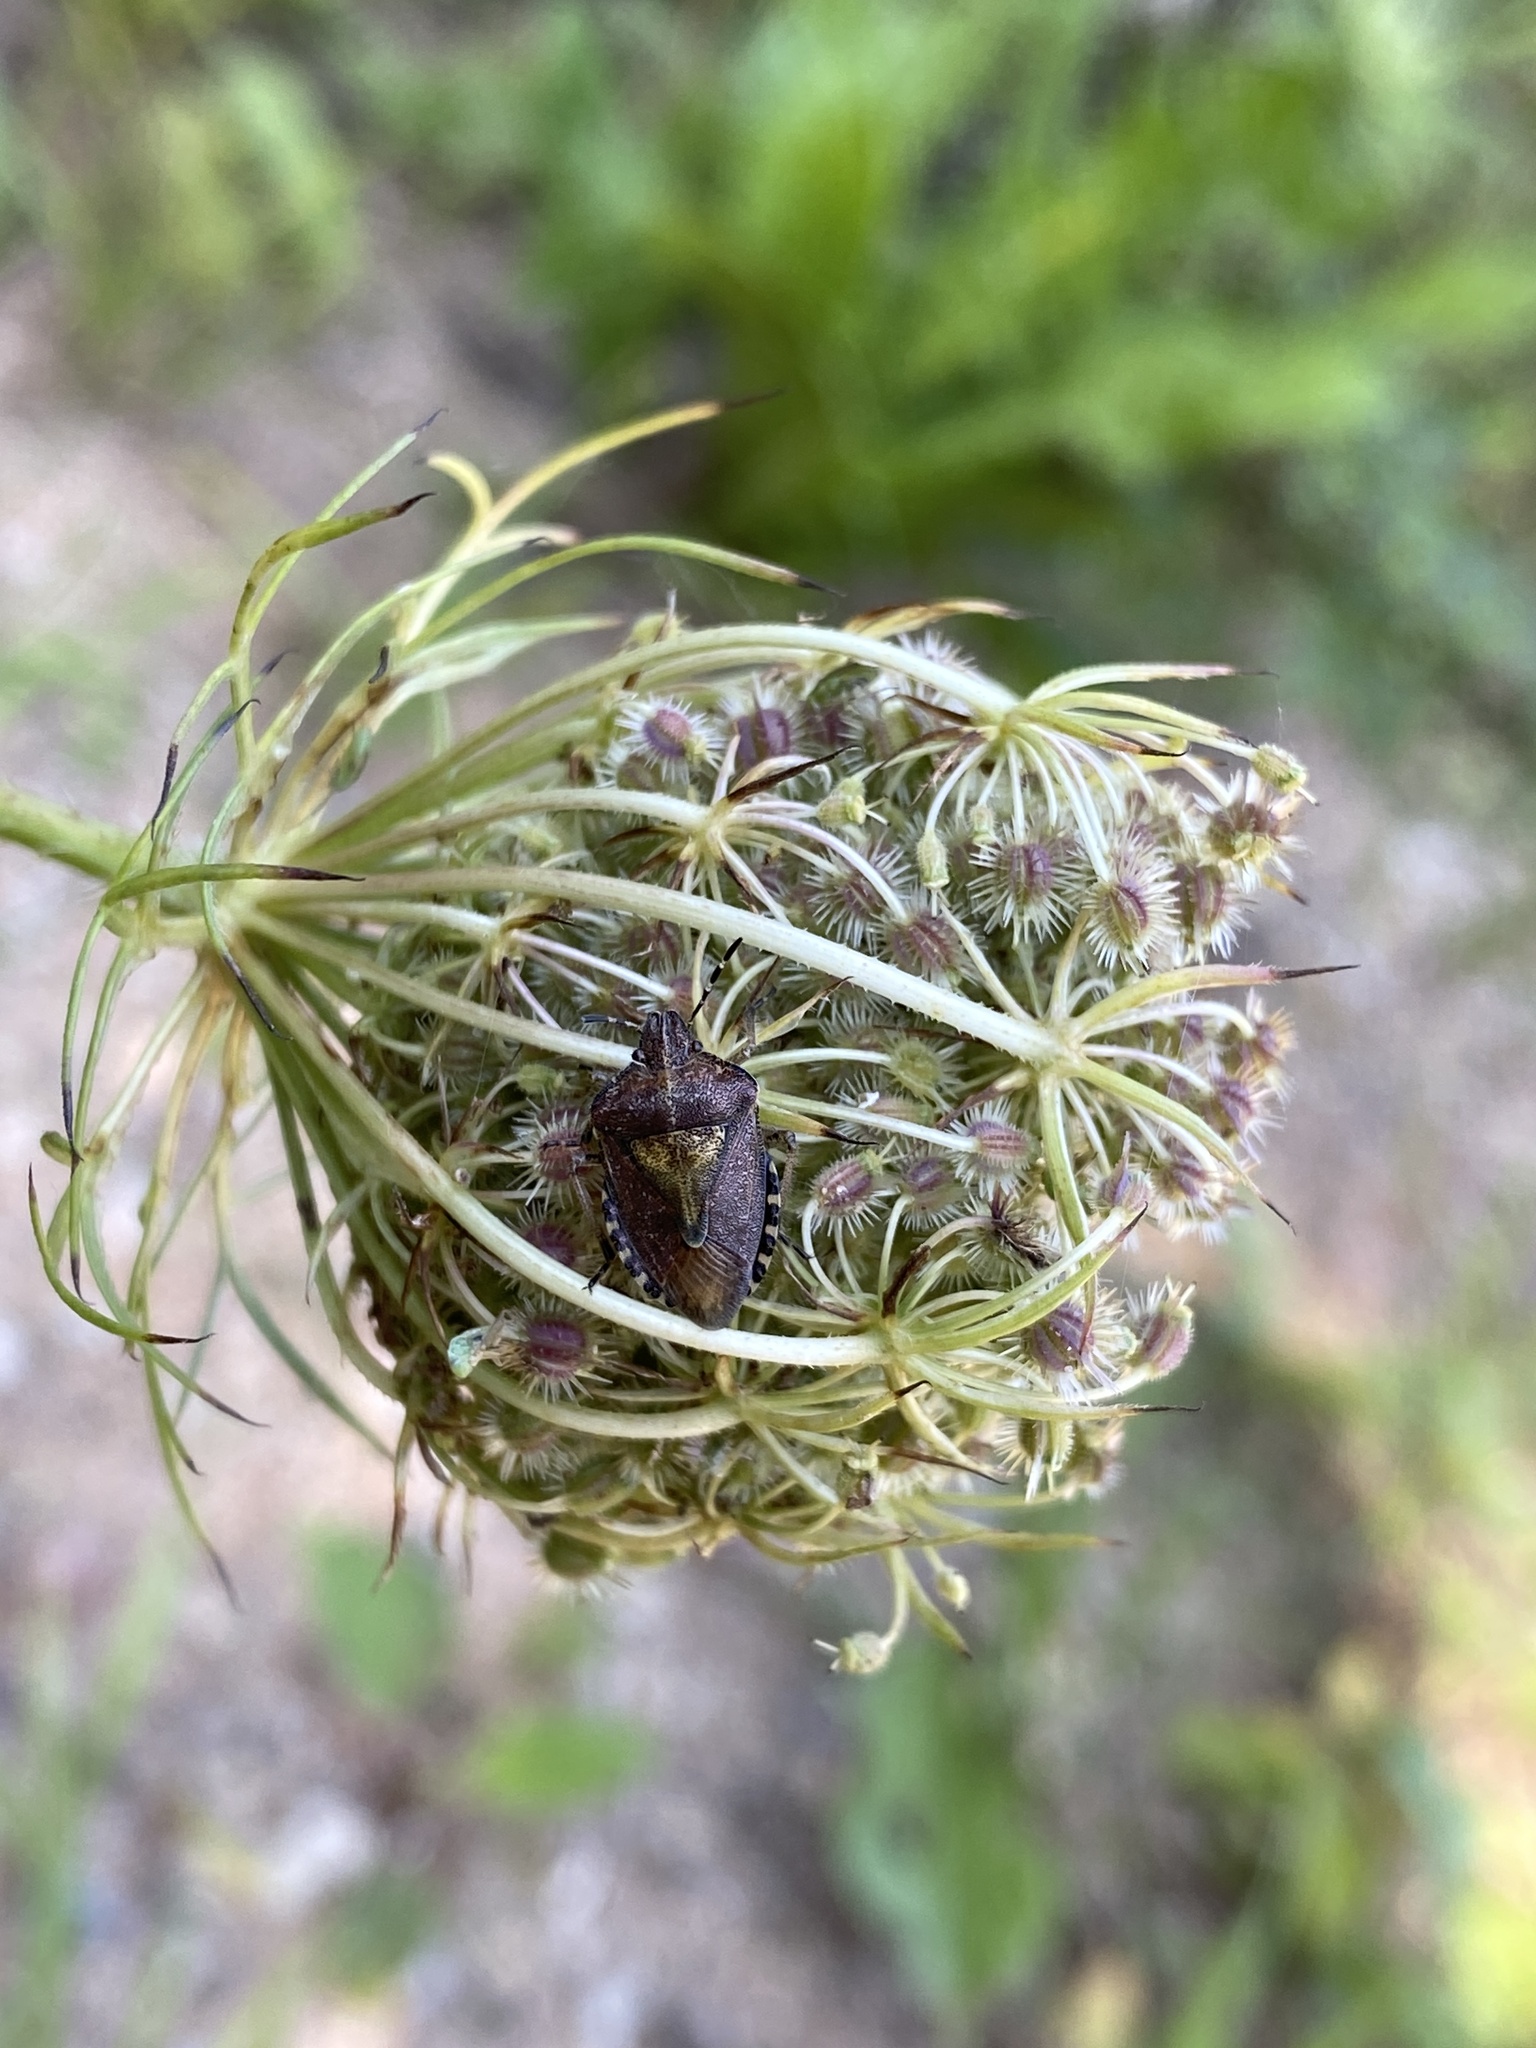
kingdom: Animalia
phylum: Arthropoda
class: Insecta
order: Hemiptera
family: Pentatomidae
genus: Dolycoris
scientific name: Dolycoris baccarum
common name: Sloe bug
